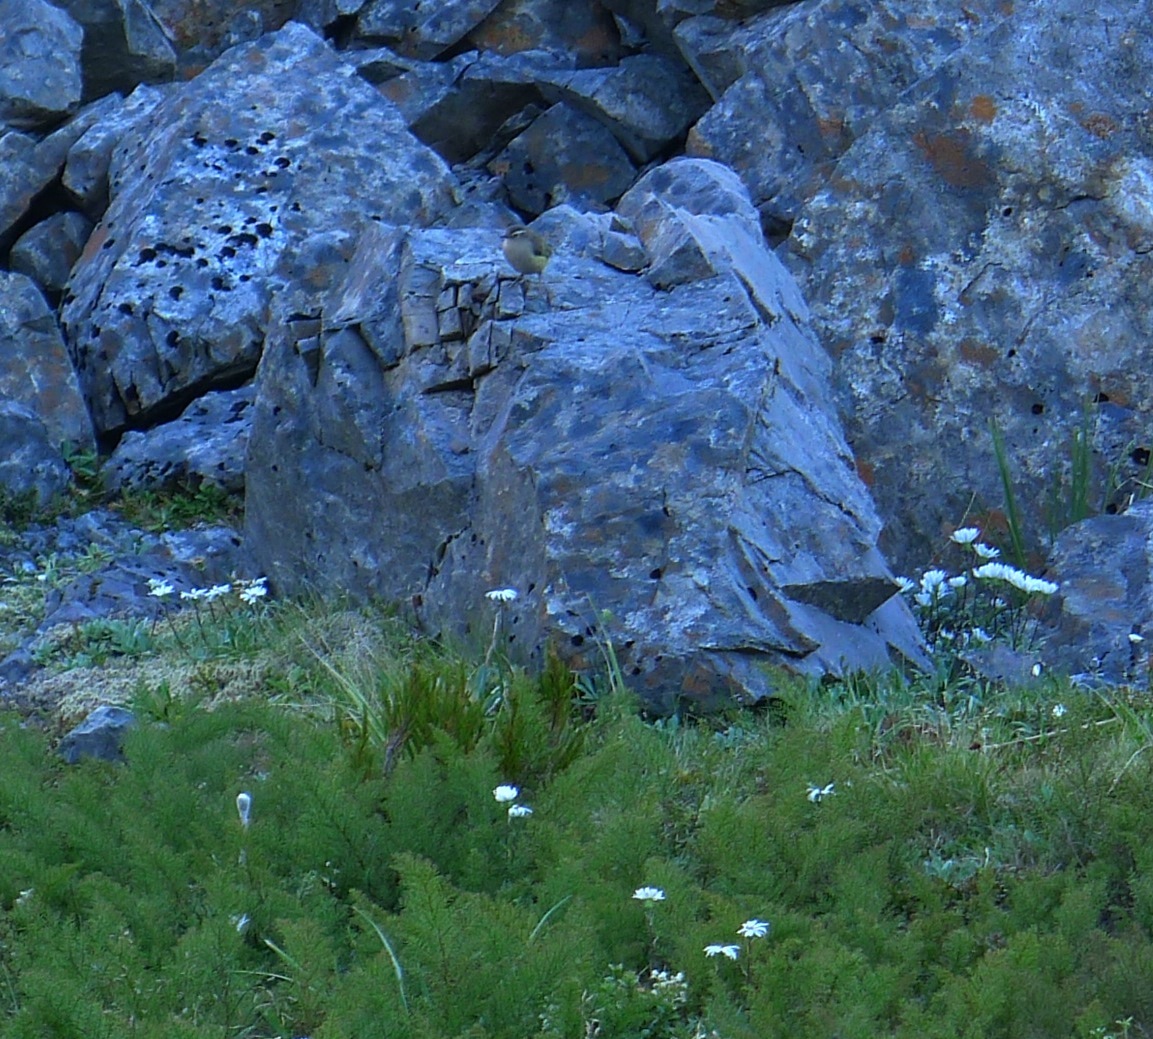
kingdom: Animalia
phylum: Chordata
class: Aves
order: Passeriformes
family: Acanthisittidae
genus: Xenicus
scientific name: Xenicus gilviventris
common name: New zealand rockwren
